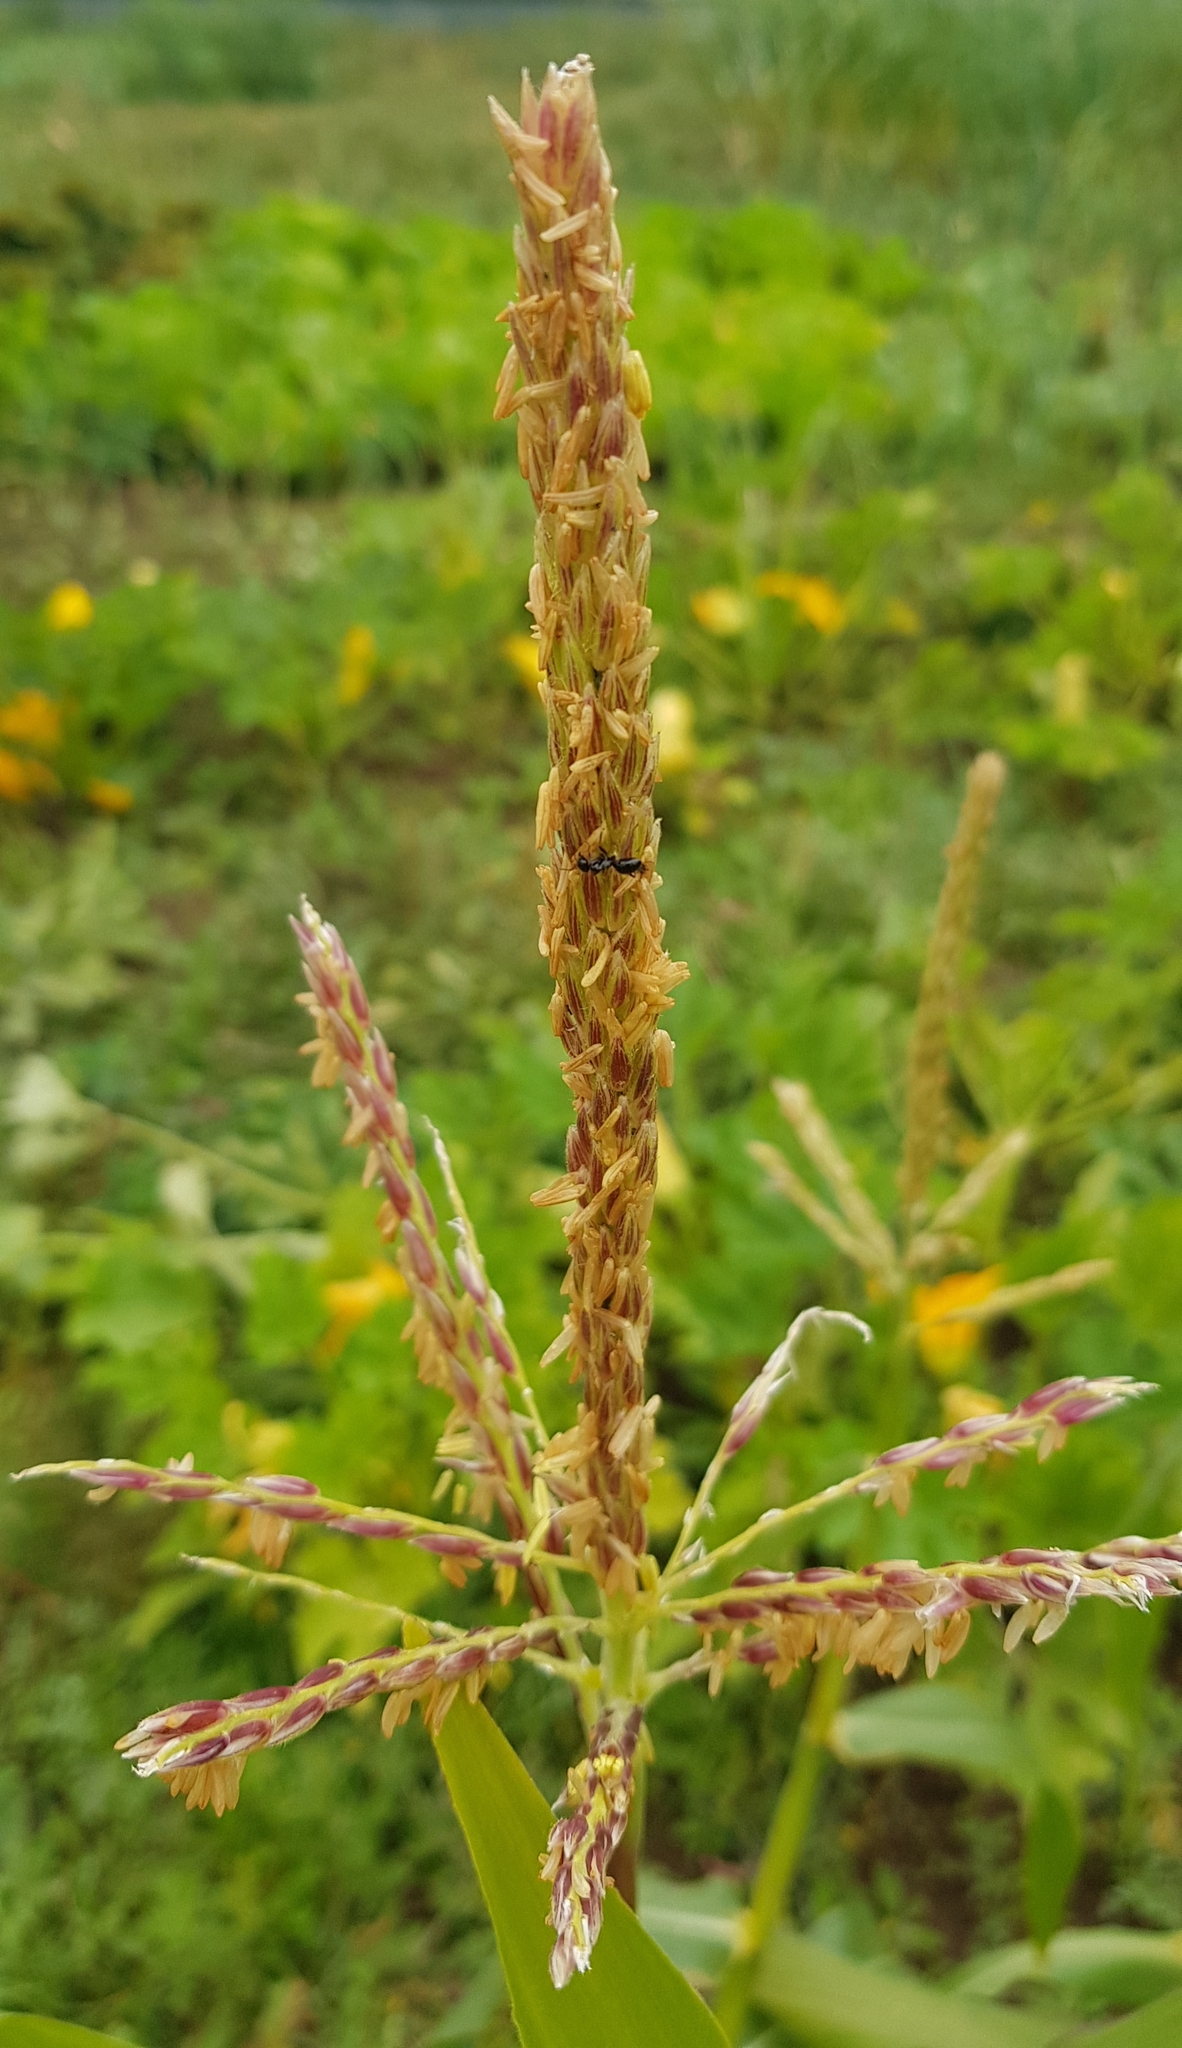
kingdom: Plantae
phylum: Tracheophyta
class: Liliopsida
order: Poales
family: Poaceae
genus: Zea
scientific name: Zea mays
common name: Maize
